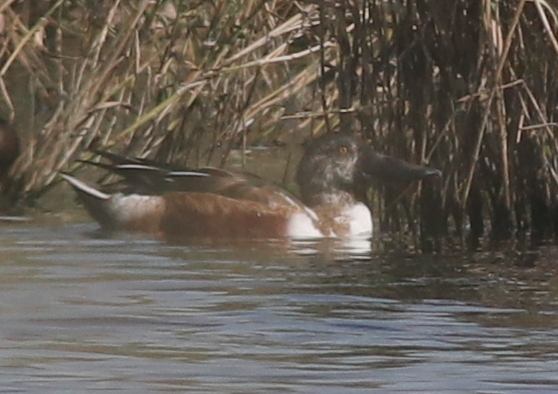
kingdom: Animalia
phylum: Chordata
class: Aves
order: Anseriformes
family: Anatidae
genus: Spatula
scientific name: Spatula clypeata
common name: Northern shoveler
